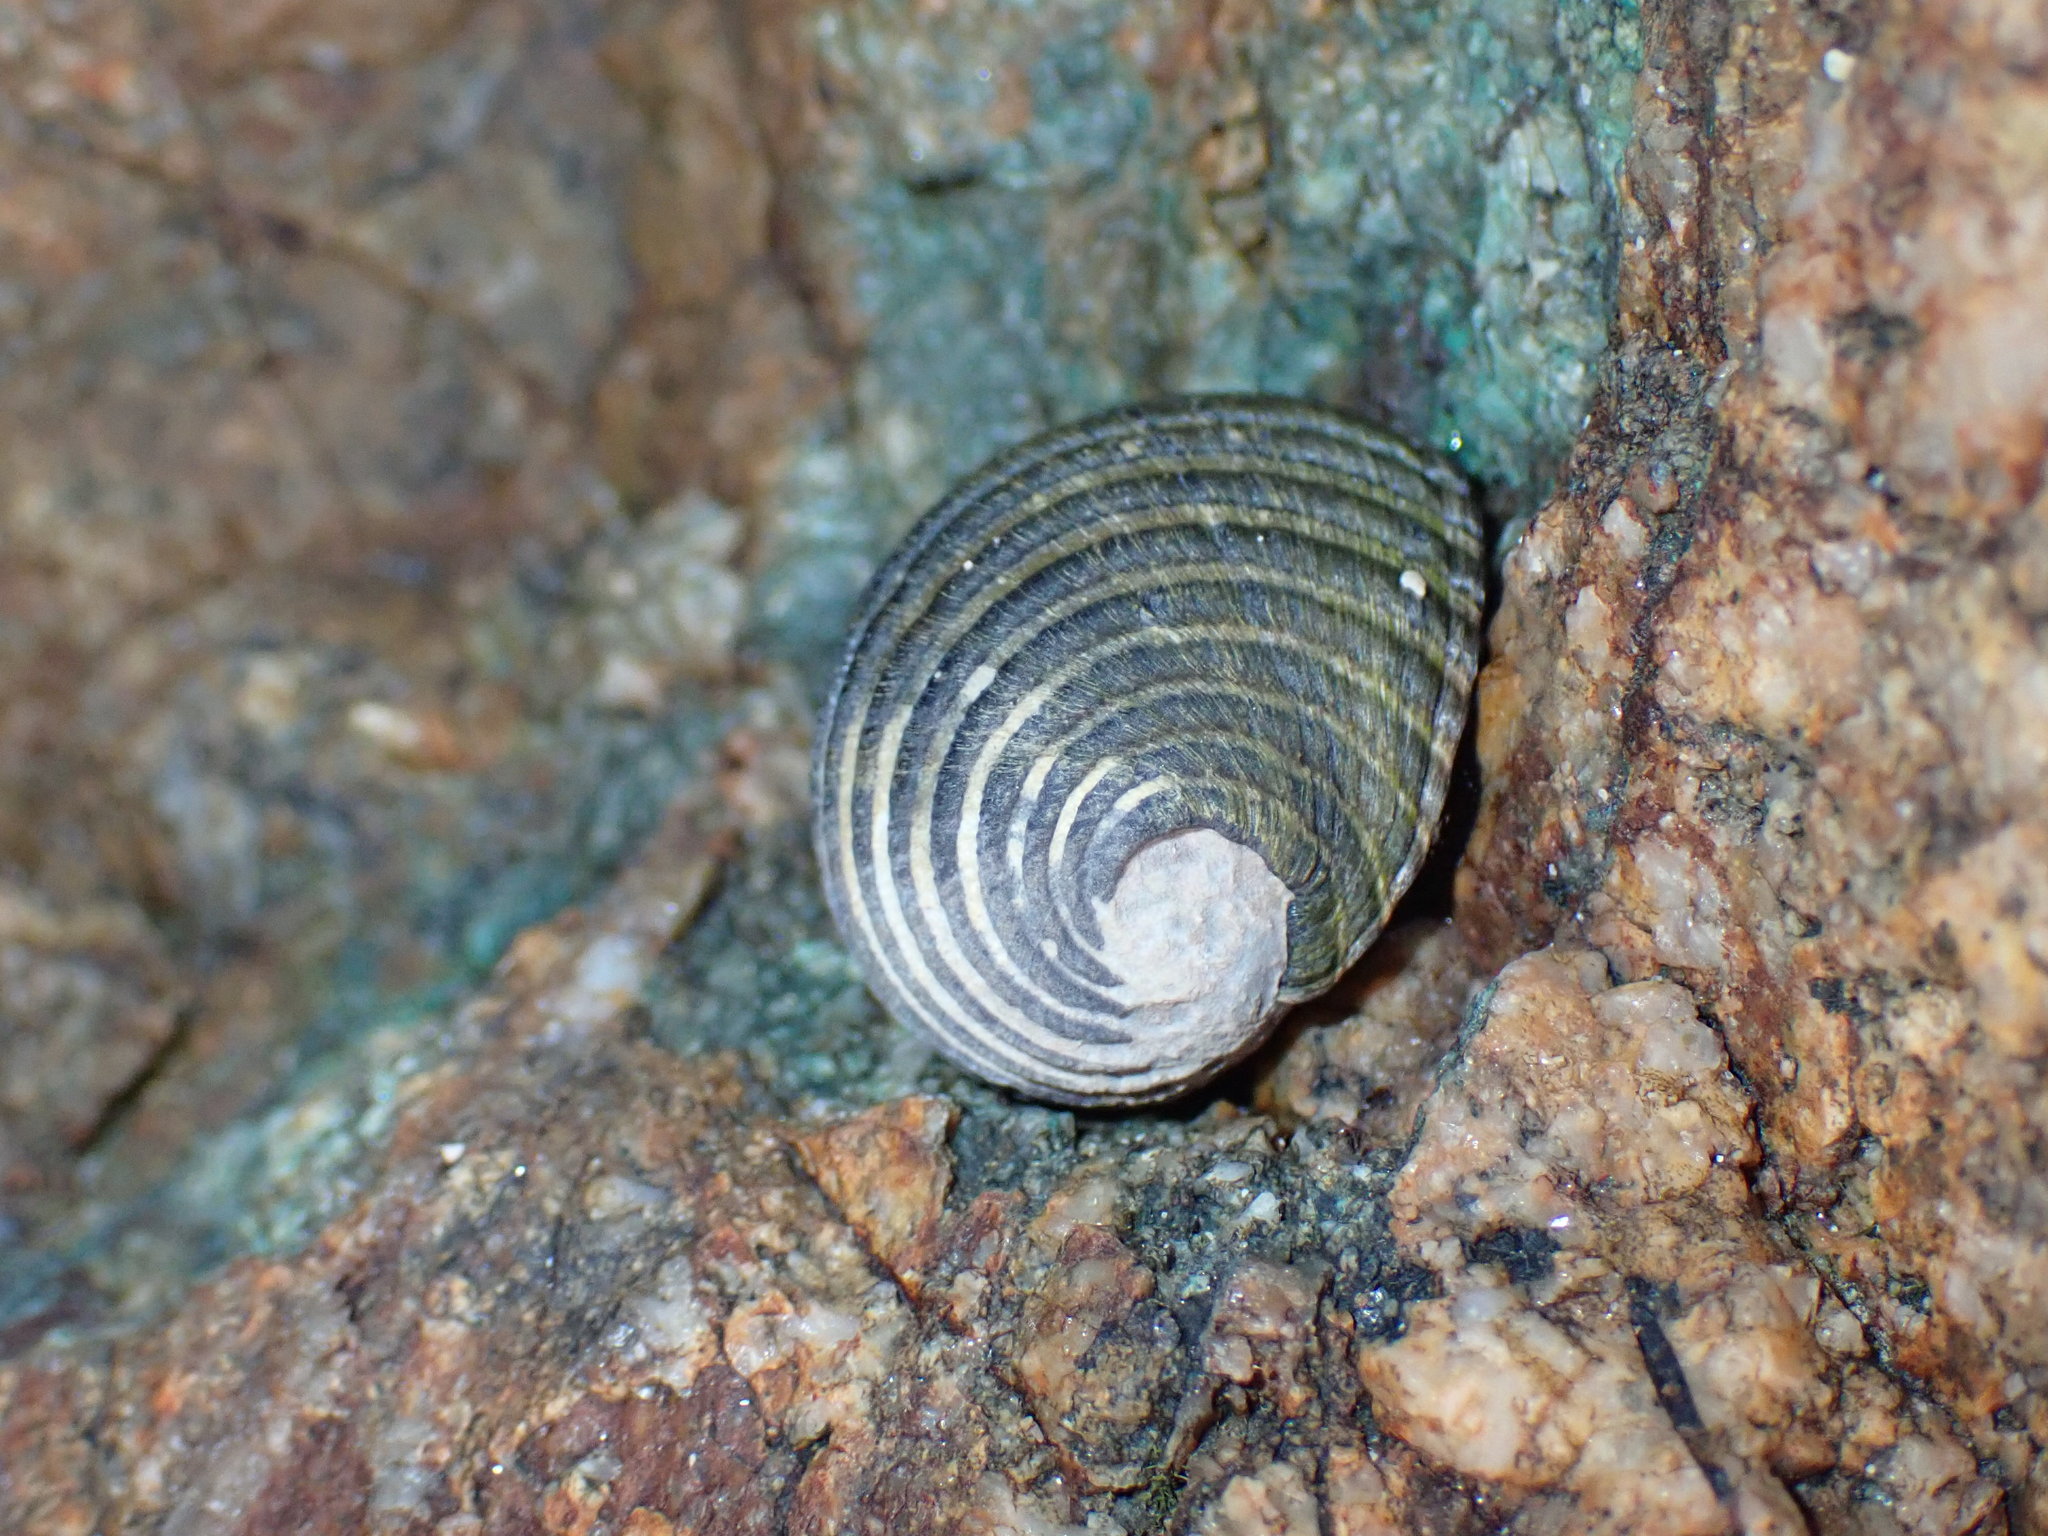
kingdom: Animalia
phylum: Mollusca
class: Gastropoda
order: Cycloneritida
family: Neritidae
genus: Nerita
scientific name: Nerita costata
